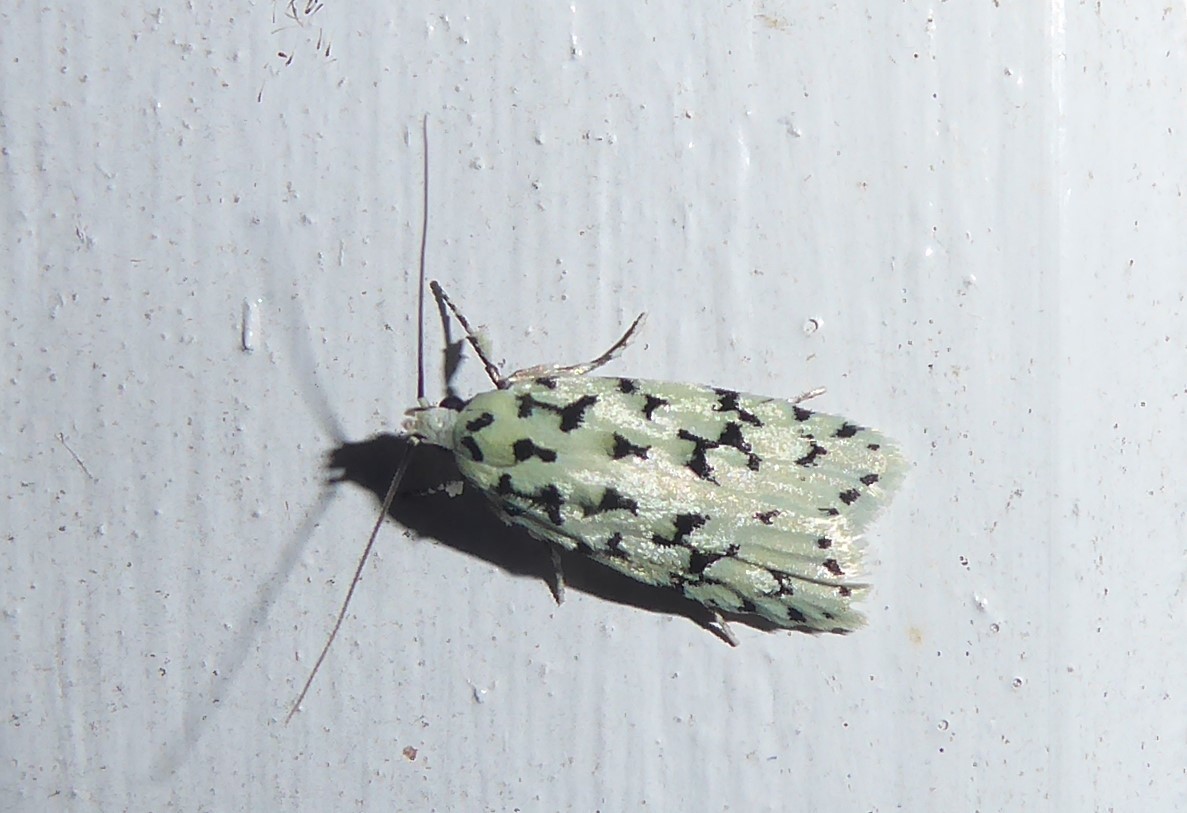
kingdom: Animalia
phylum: Arthropoda
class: Insecta
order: Lepidoptera
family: Oecophoridae
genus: Izatha
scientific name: Izatha huttoni
